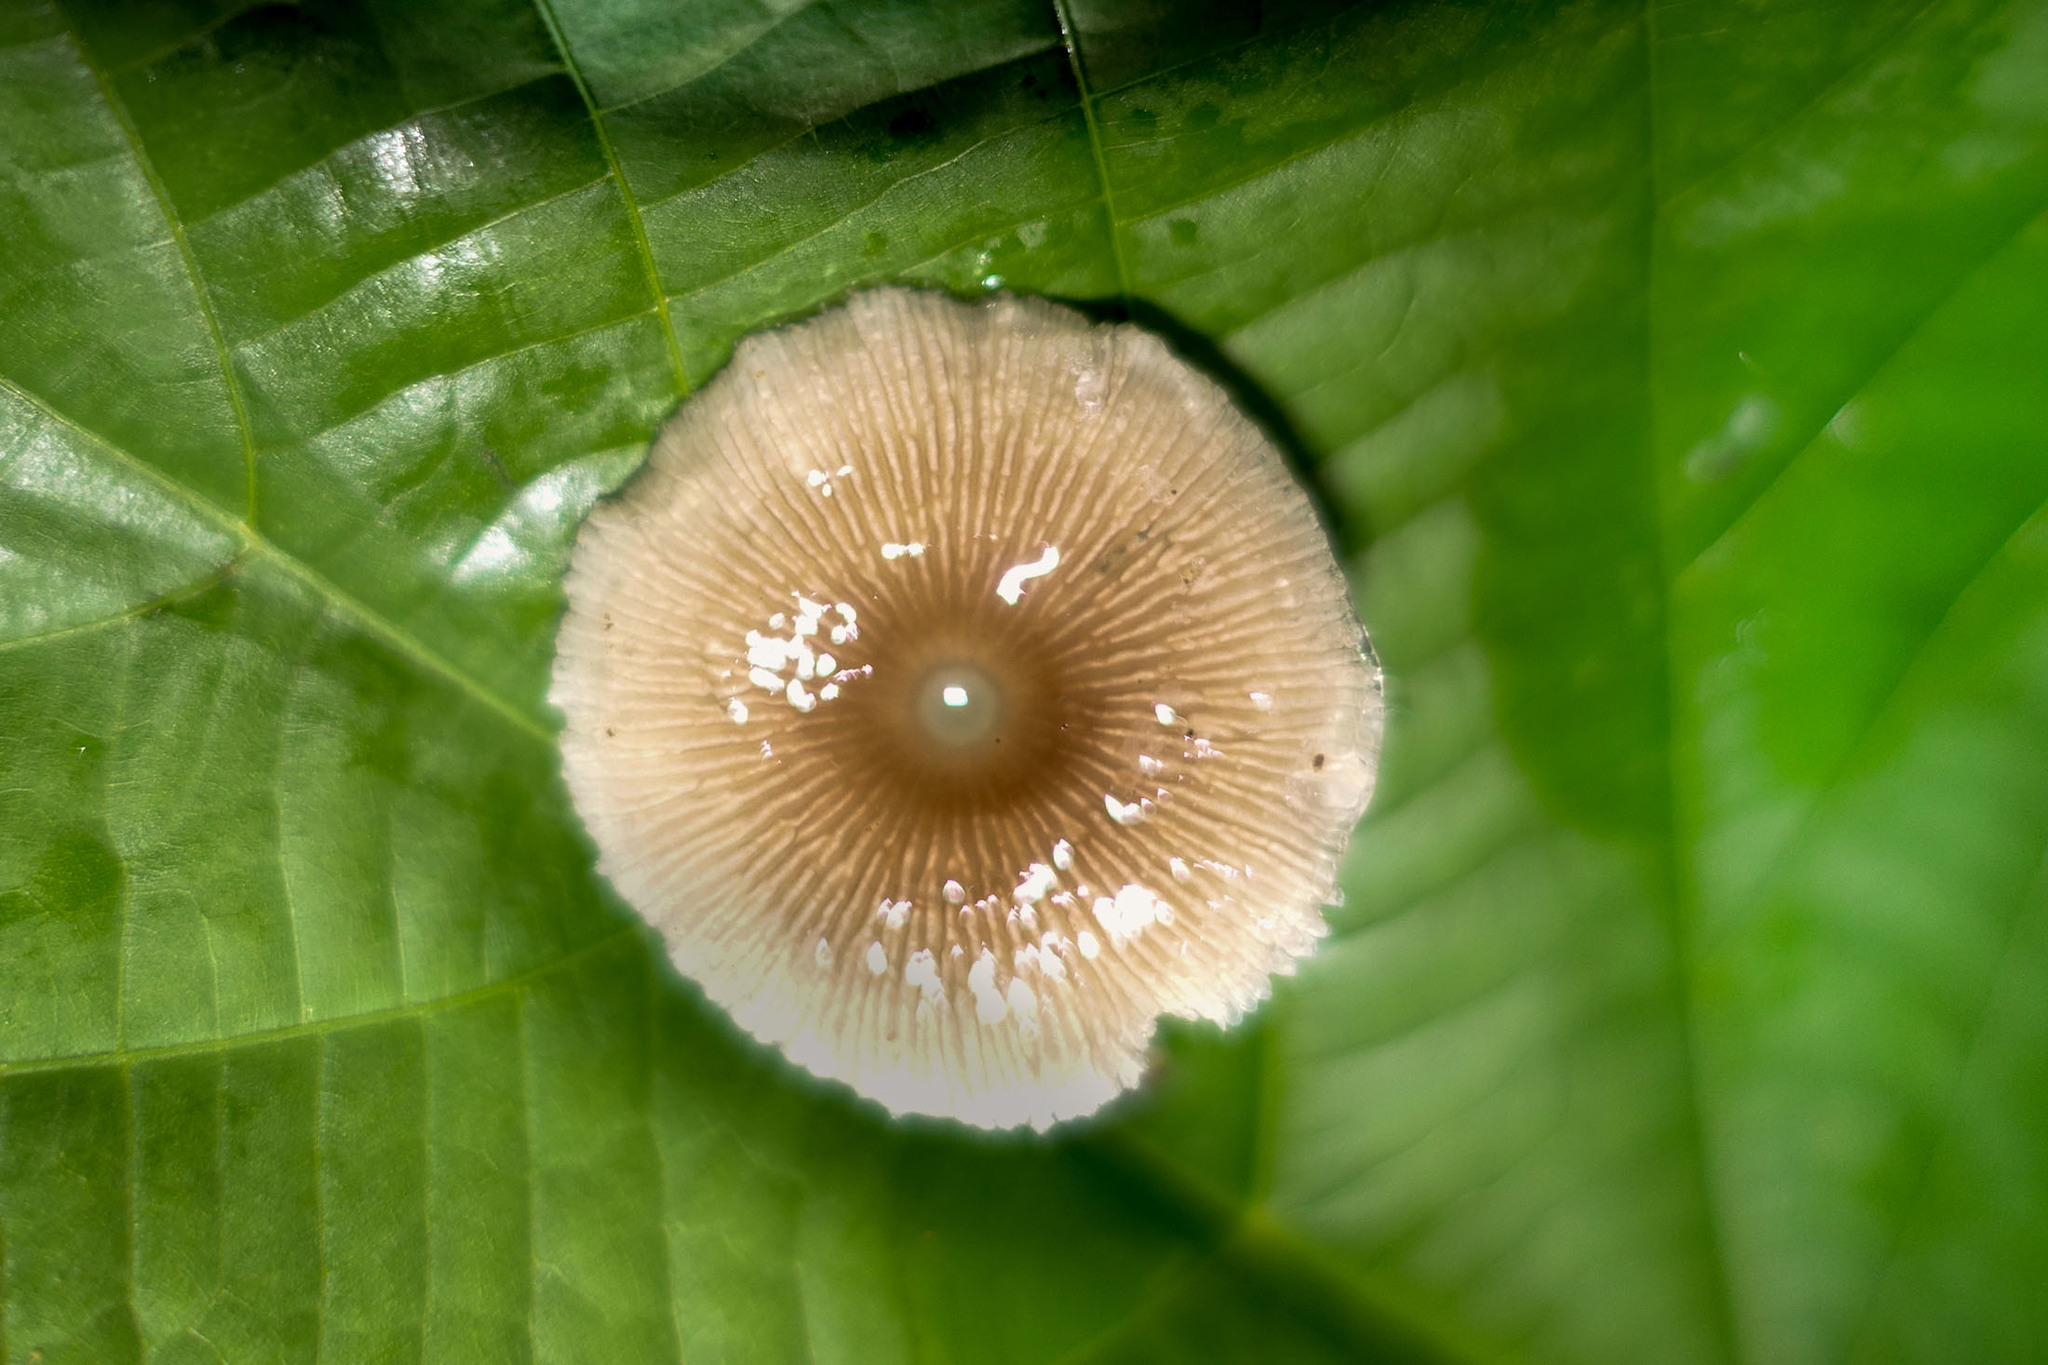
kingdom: Fungi
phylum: Basidiomycota
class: Agaricomycetes
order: Agaricales
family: Mycenaceae
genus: Mycena
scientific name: Mycena chlorophos
